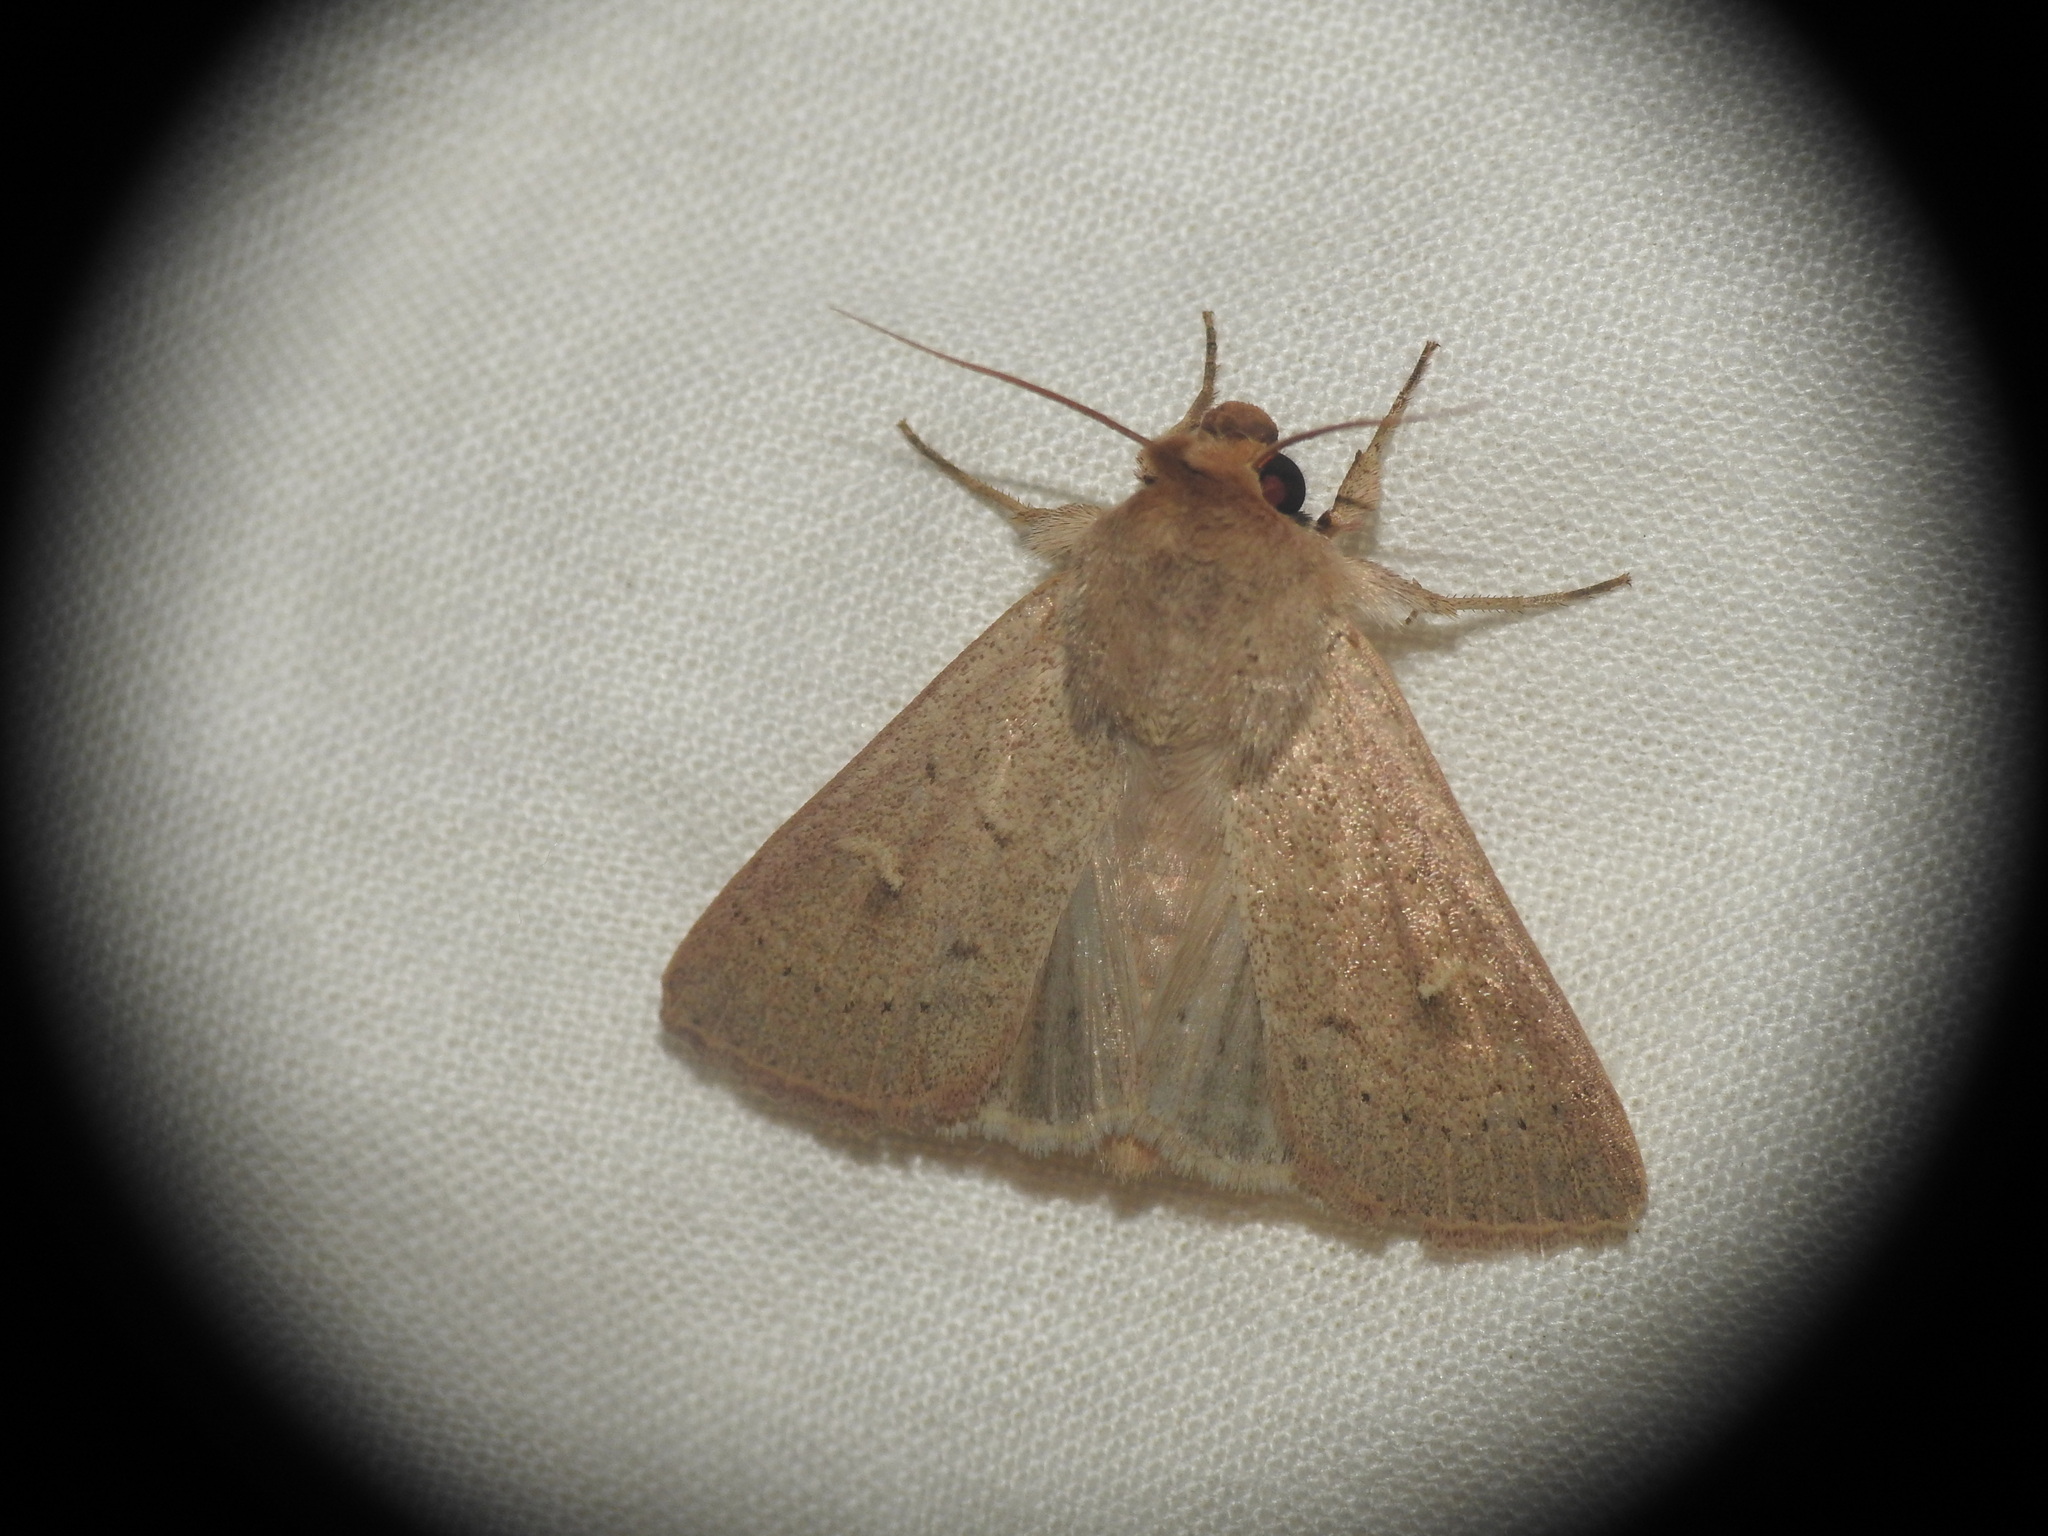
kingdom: Animalia
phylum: Arthropoda
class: Insecta
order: Lepidoptera
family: Noctuidae
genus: Mythimna
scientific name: Mythimna ferrago
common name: Clay
